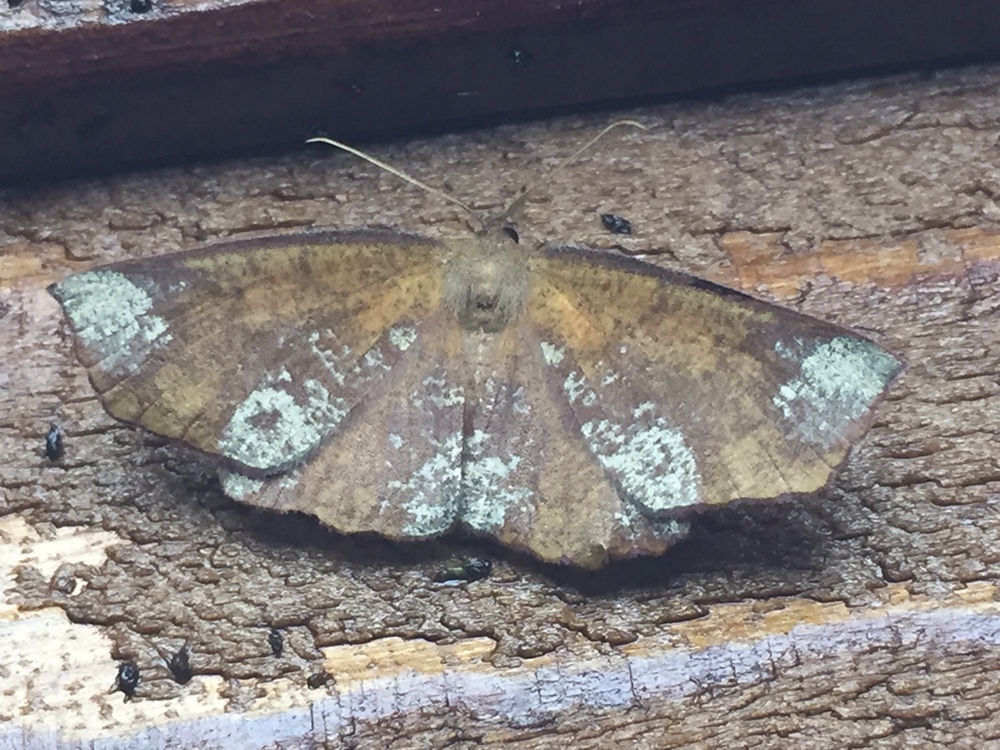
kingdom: Animalia
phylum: Arthropoda
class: Insecta
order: Lepidoptera
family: Geometridae
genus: Xyridacma
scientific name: Xyridacma ustaria
